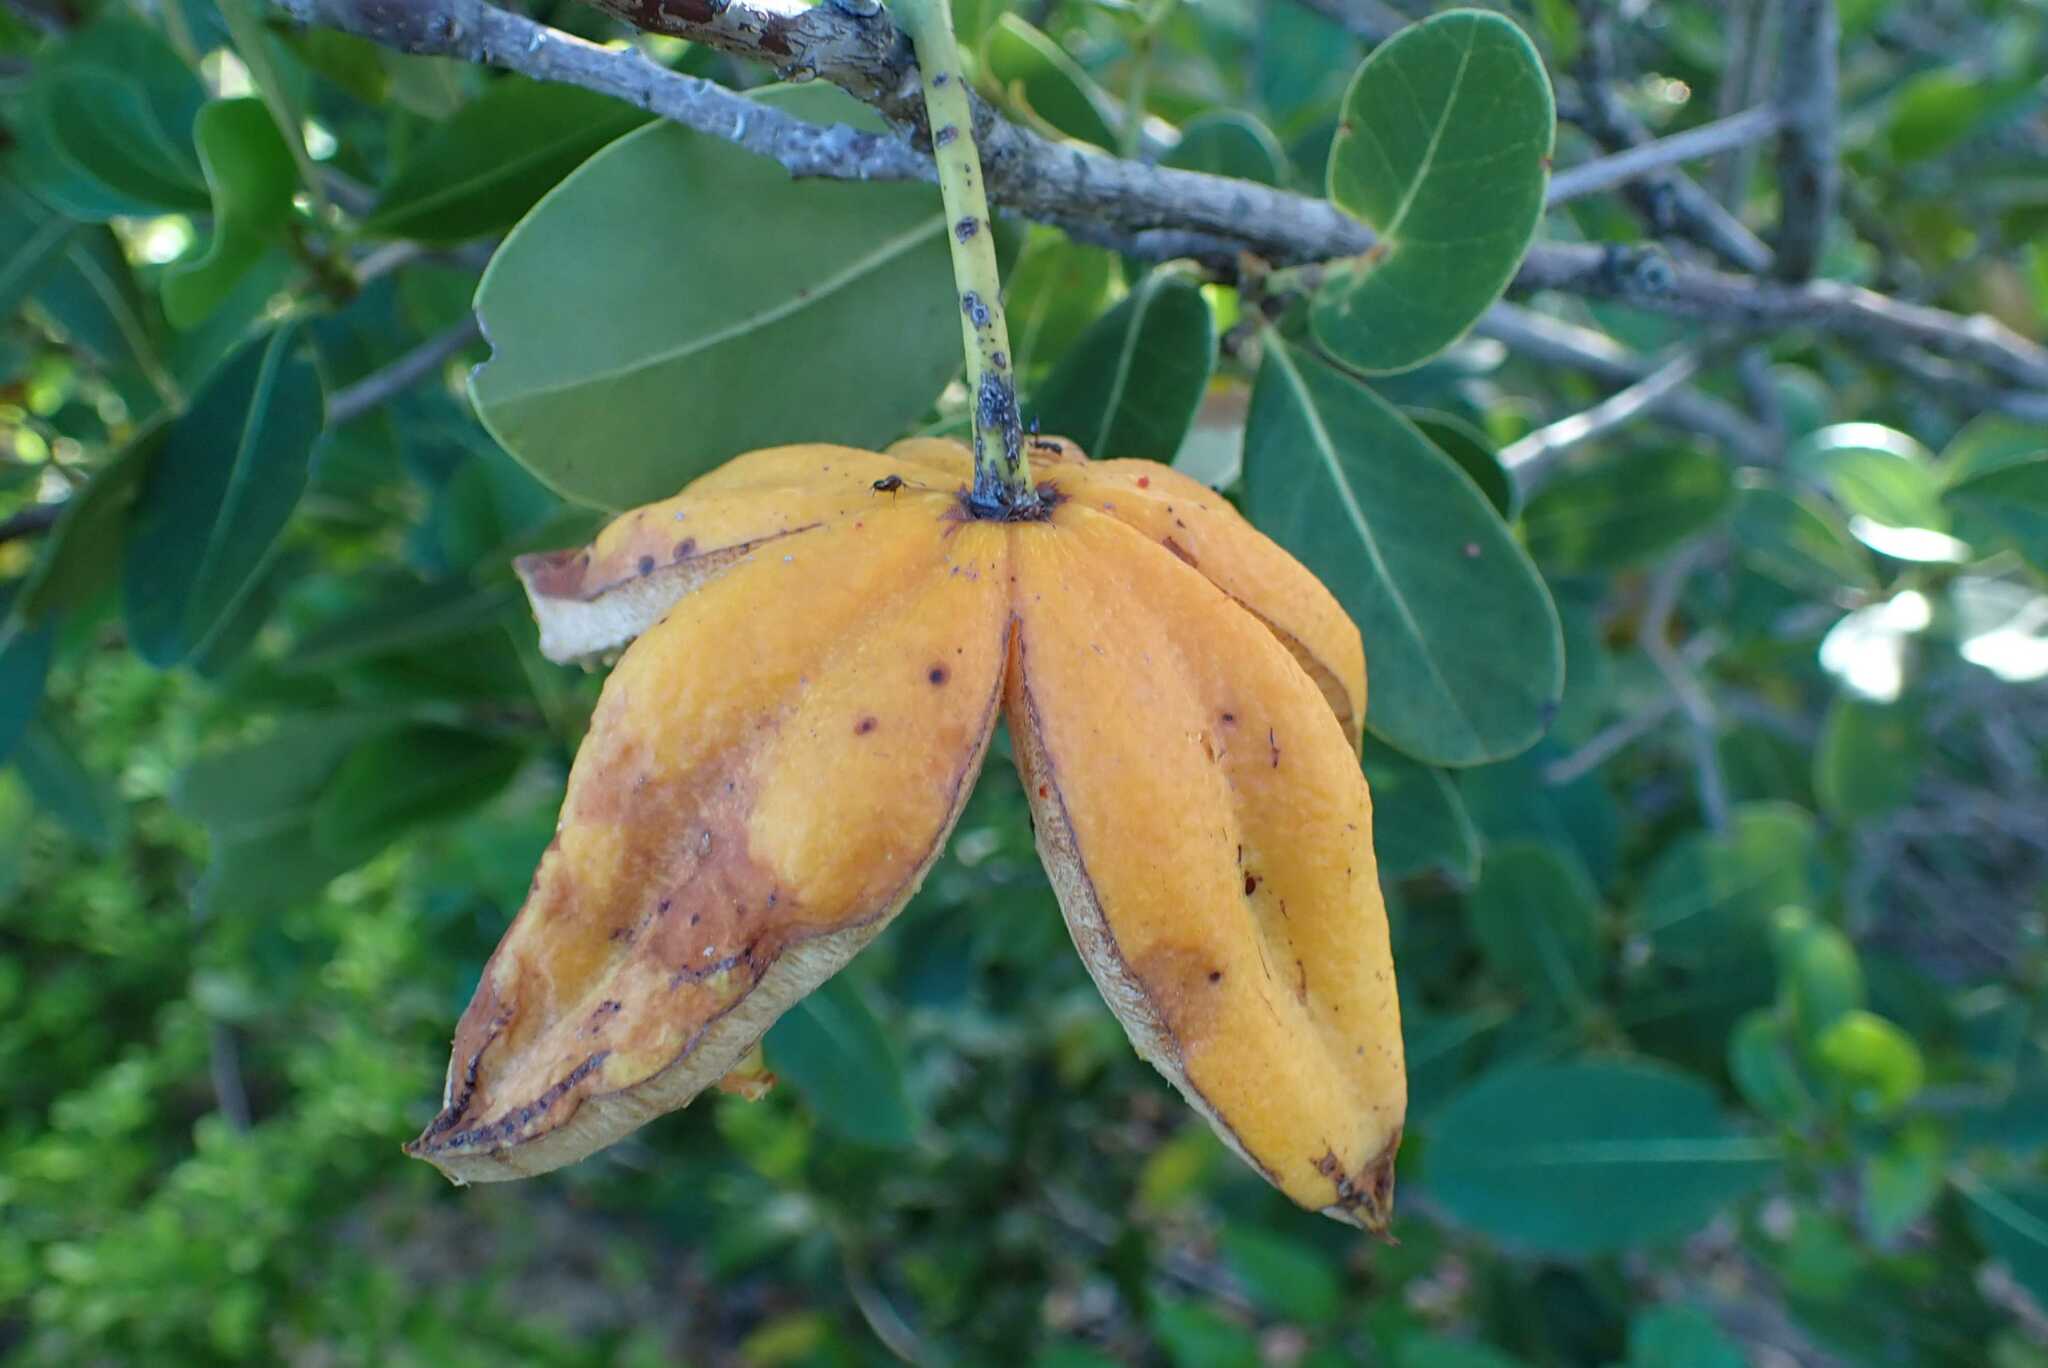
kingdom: Plantae
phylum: Tracheophyta
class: Magnoliopsida
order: Malpighiales
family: Achariaceae
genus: Xylotheca
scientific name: Xylotheca kraussiana
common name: African dog rose
